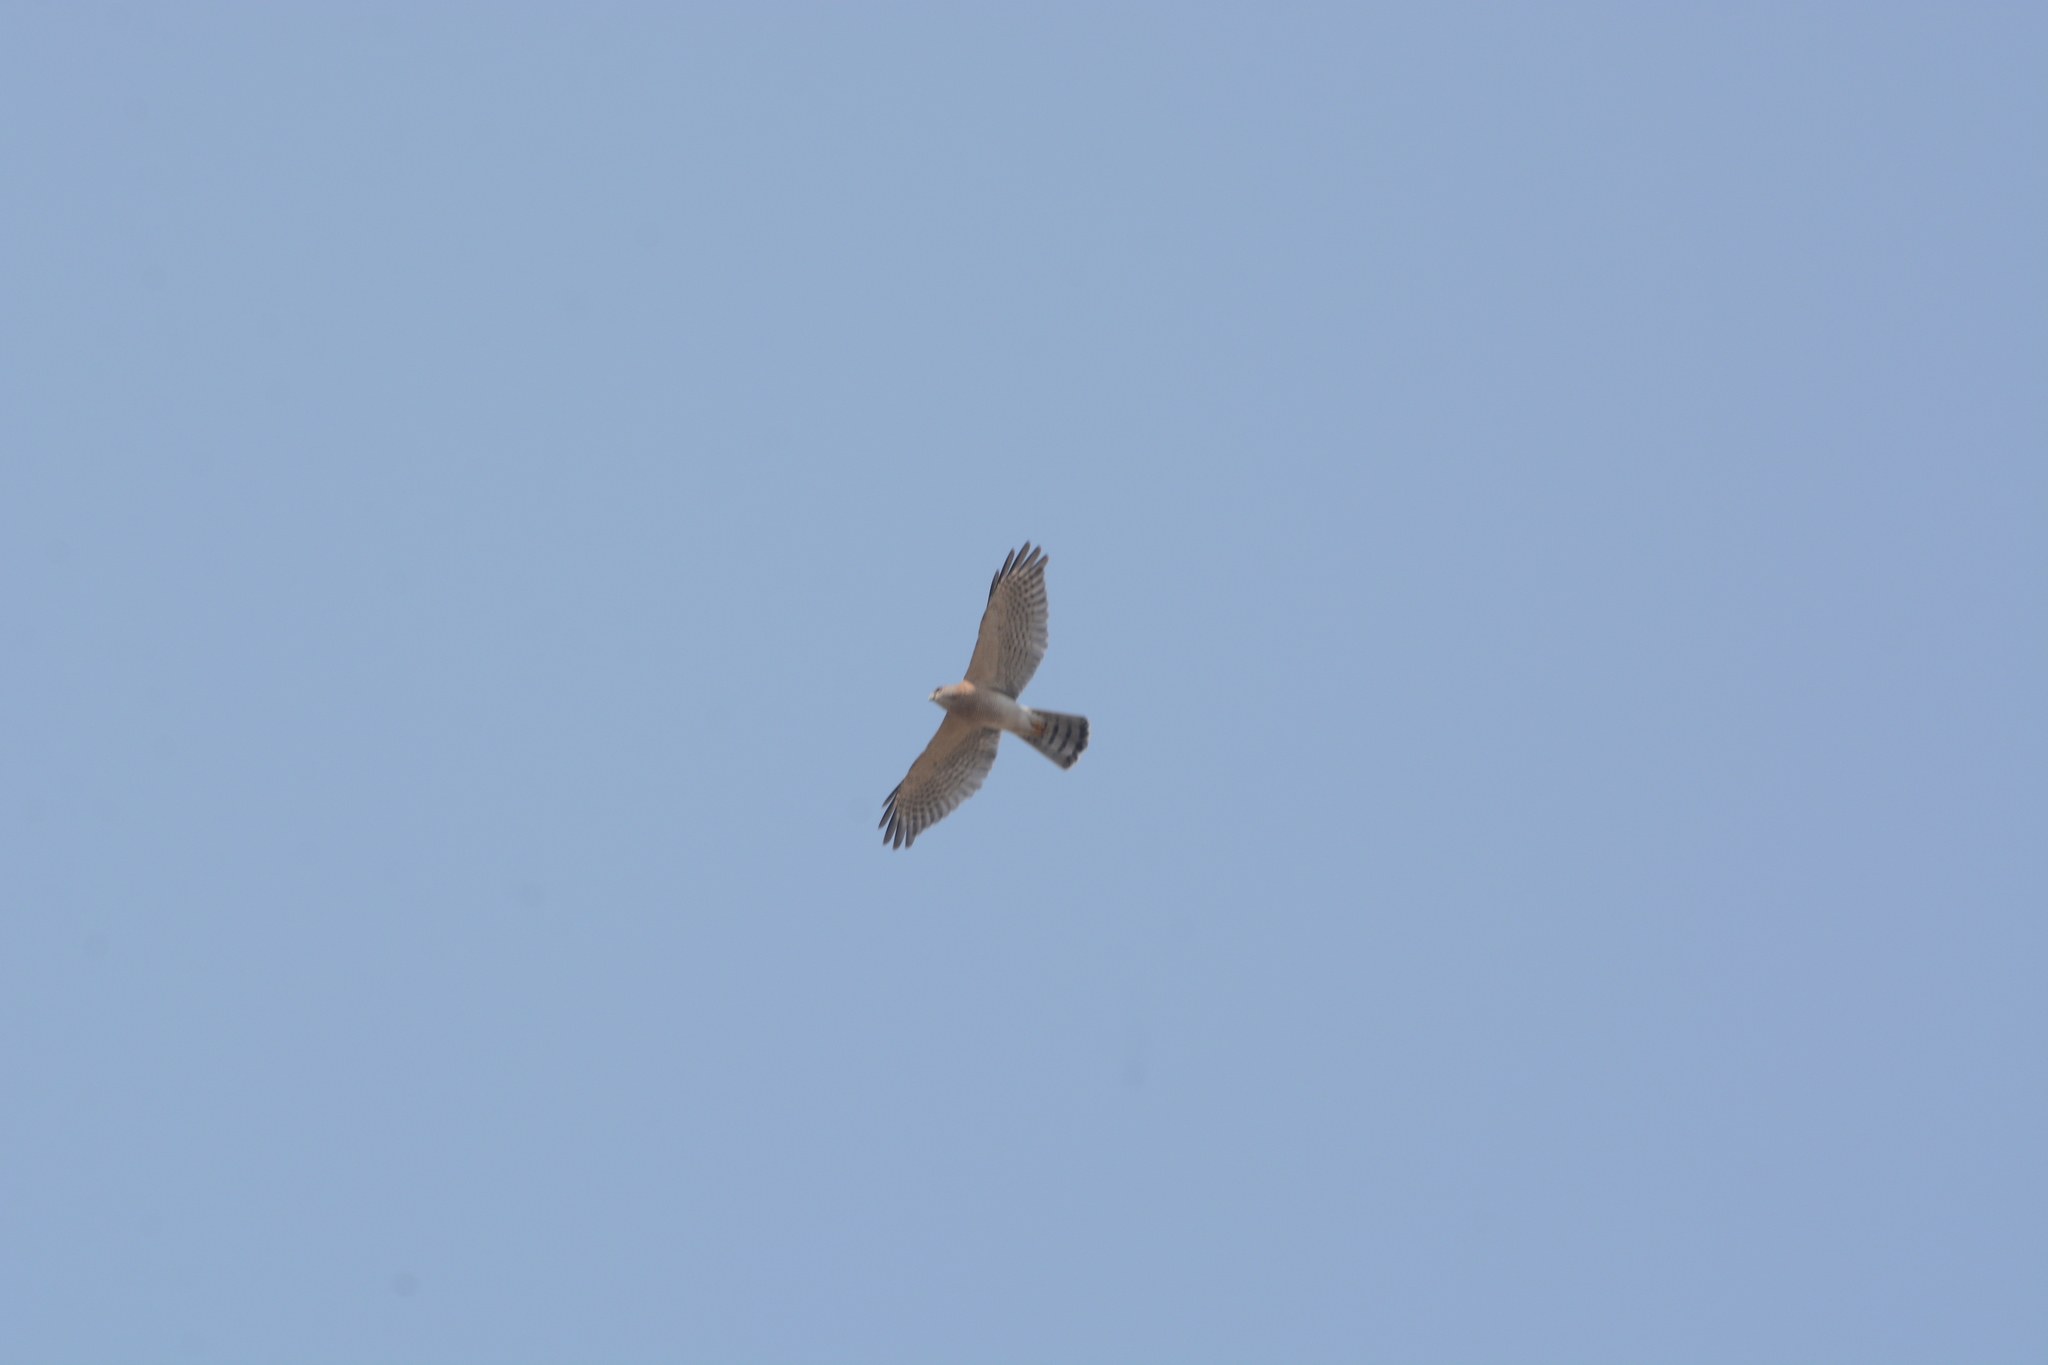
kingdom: Animalia
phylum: Chordata
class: Aves
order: Accipitriformes
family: Accipitridae
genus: Accipiter
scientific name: Accipiter badius
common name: Shikra
